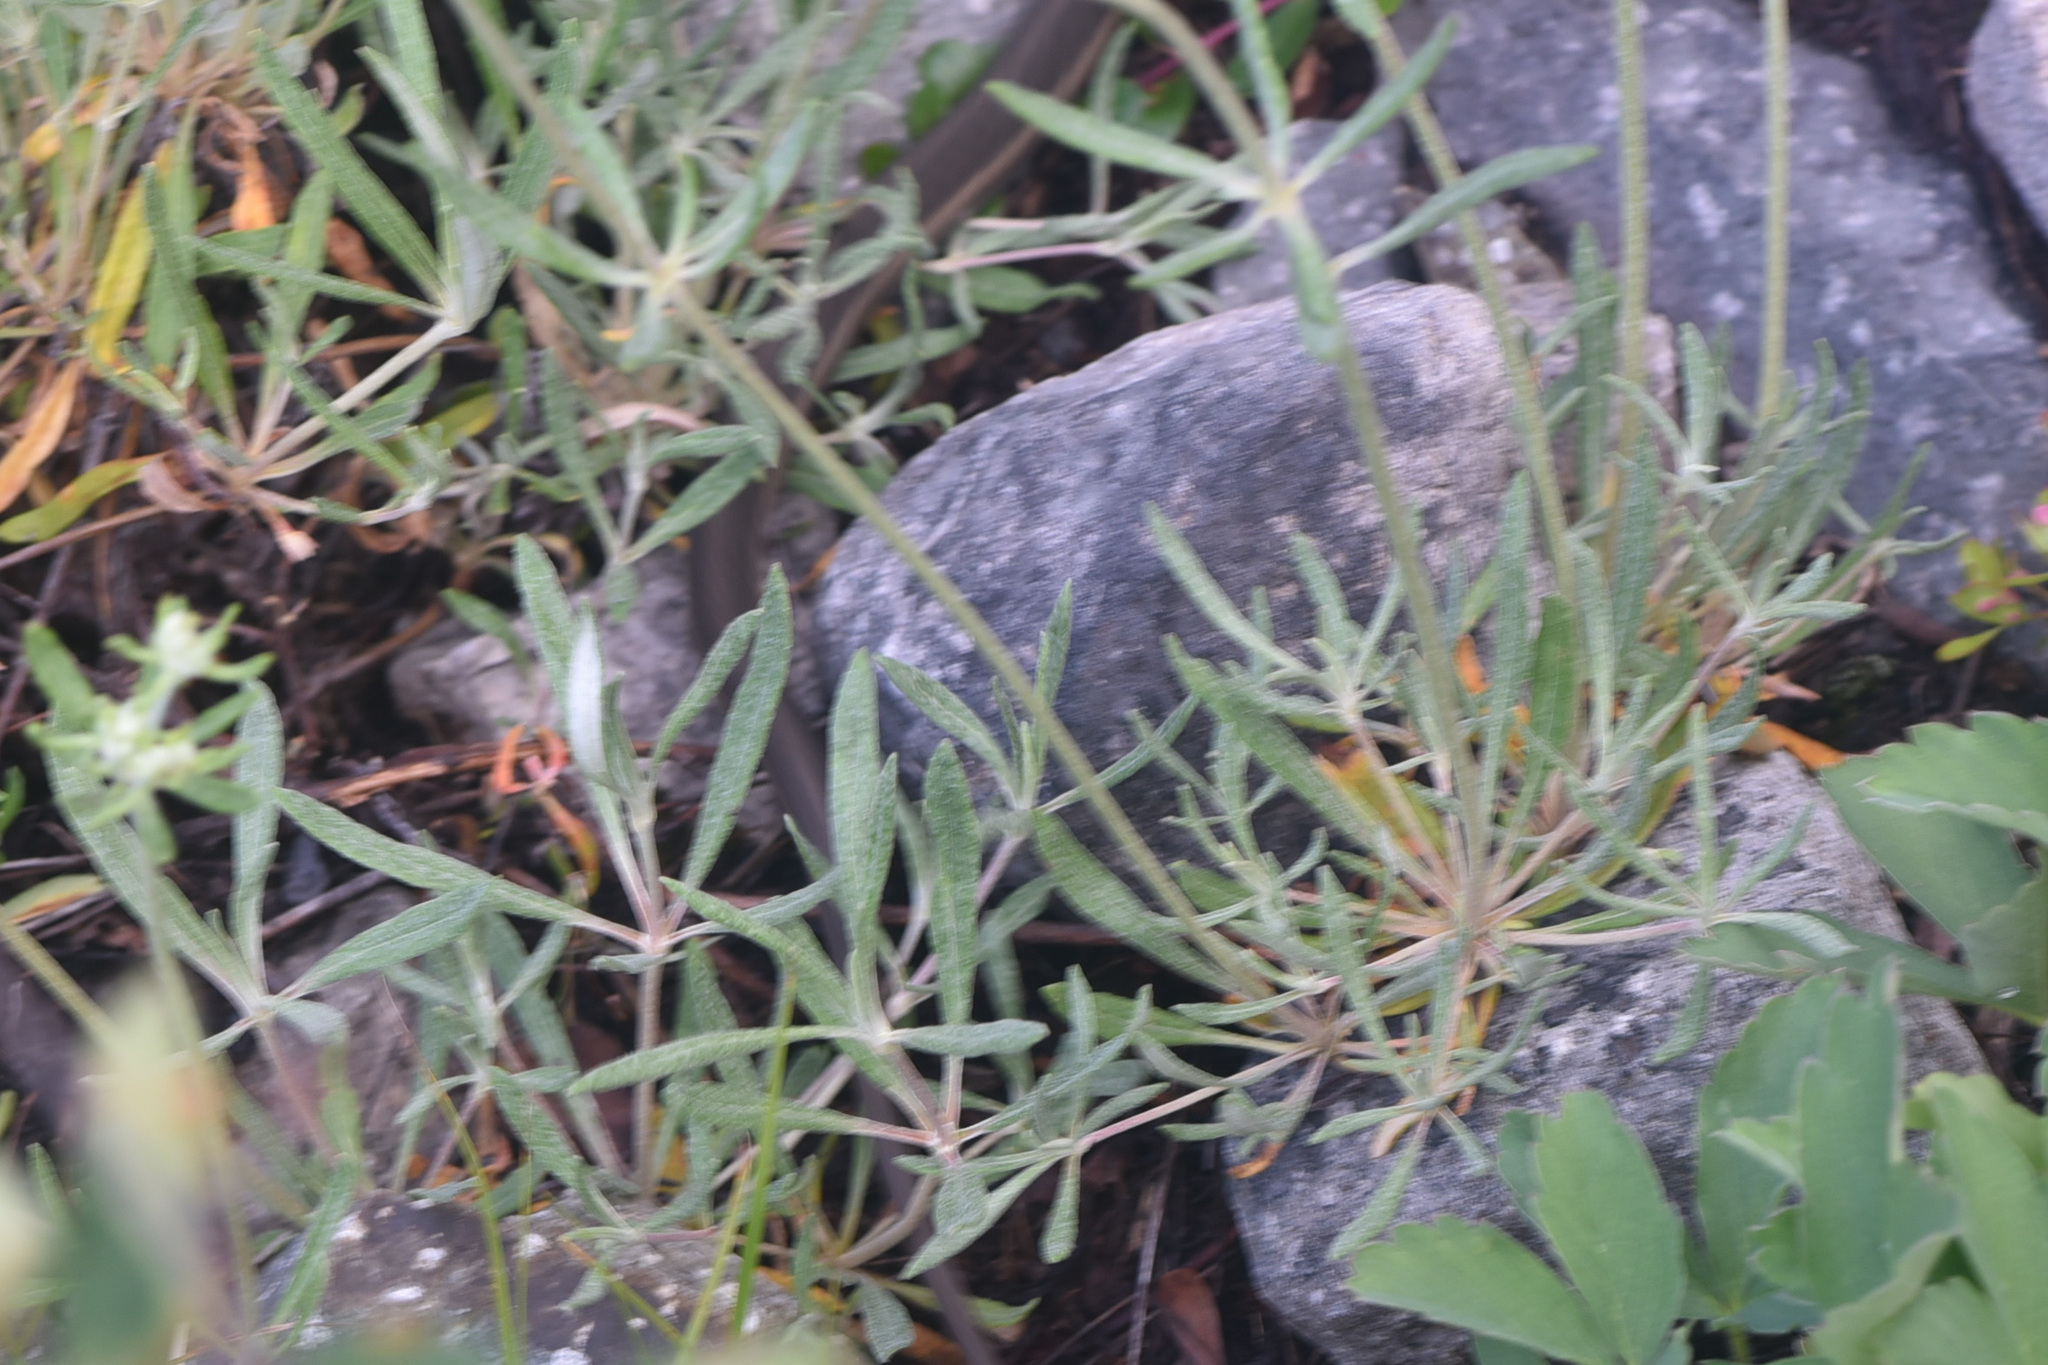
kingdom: Plantae
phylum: Tracheophyta
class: Magnoliopsida
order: Caryophyllales
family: Polygonaceae
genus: Eriogonum
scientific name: Eriogonum heracleoides
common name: Wyeth's buckwheat
